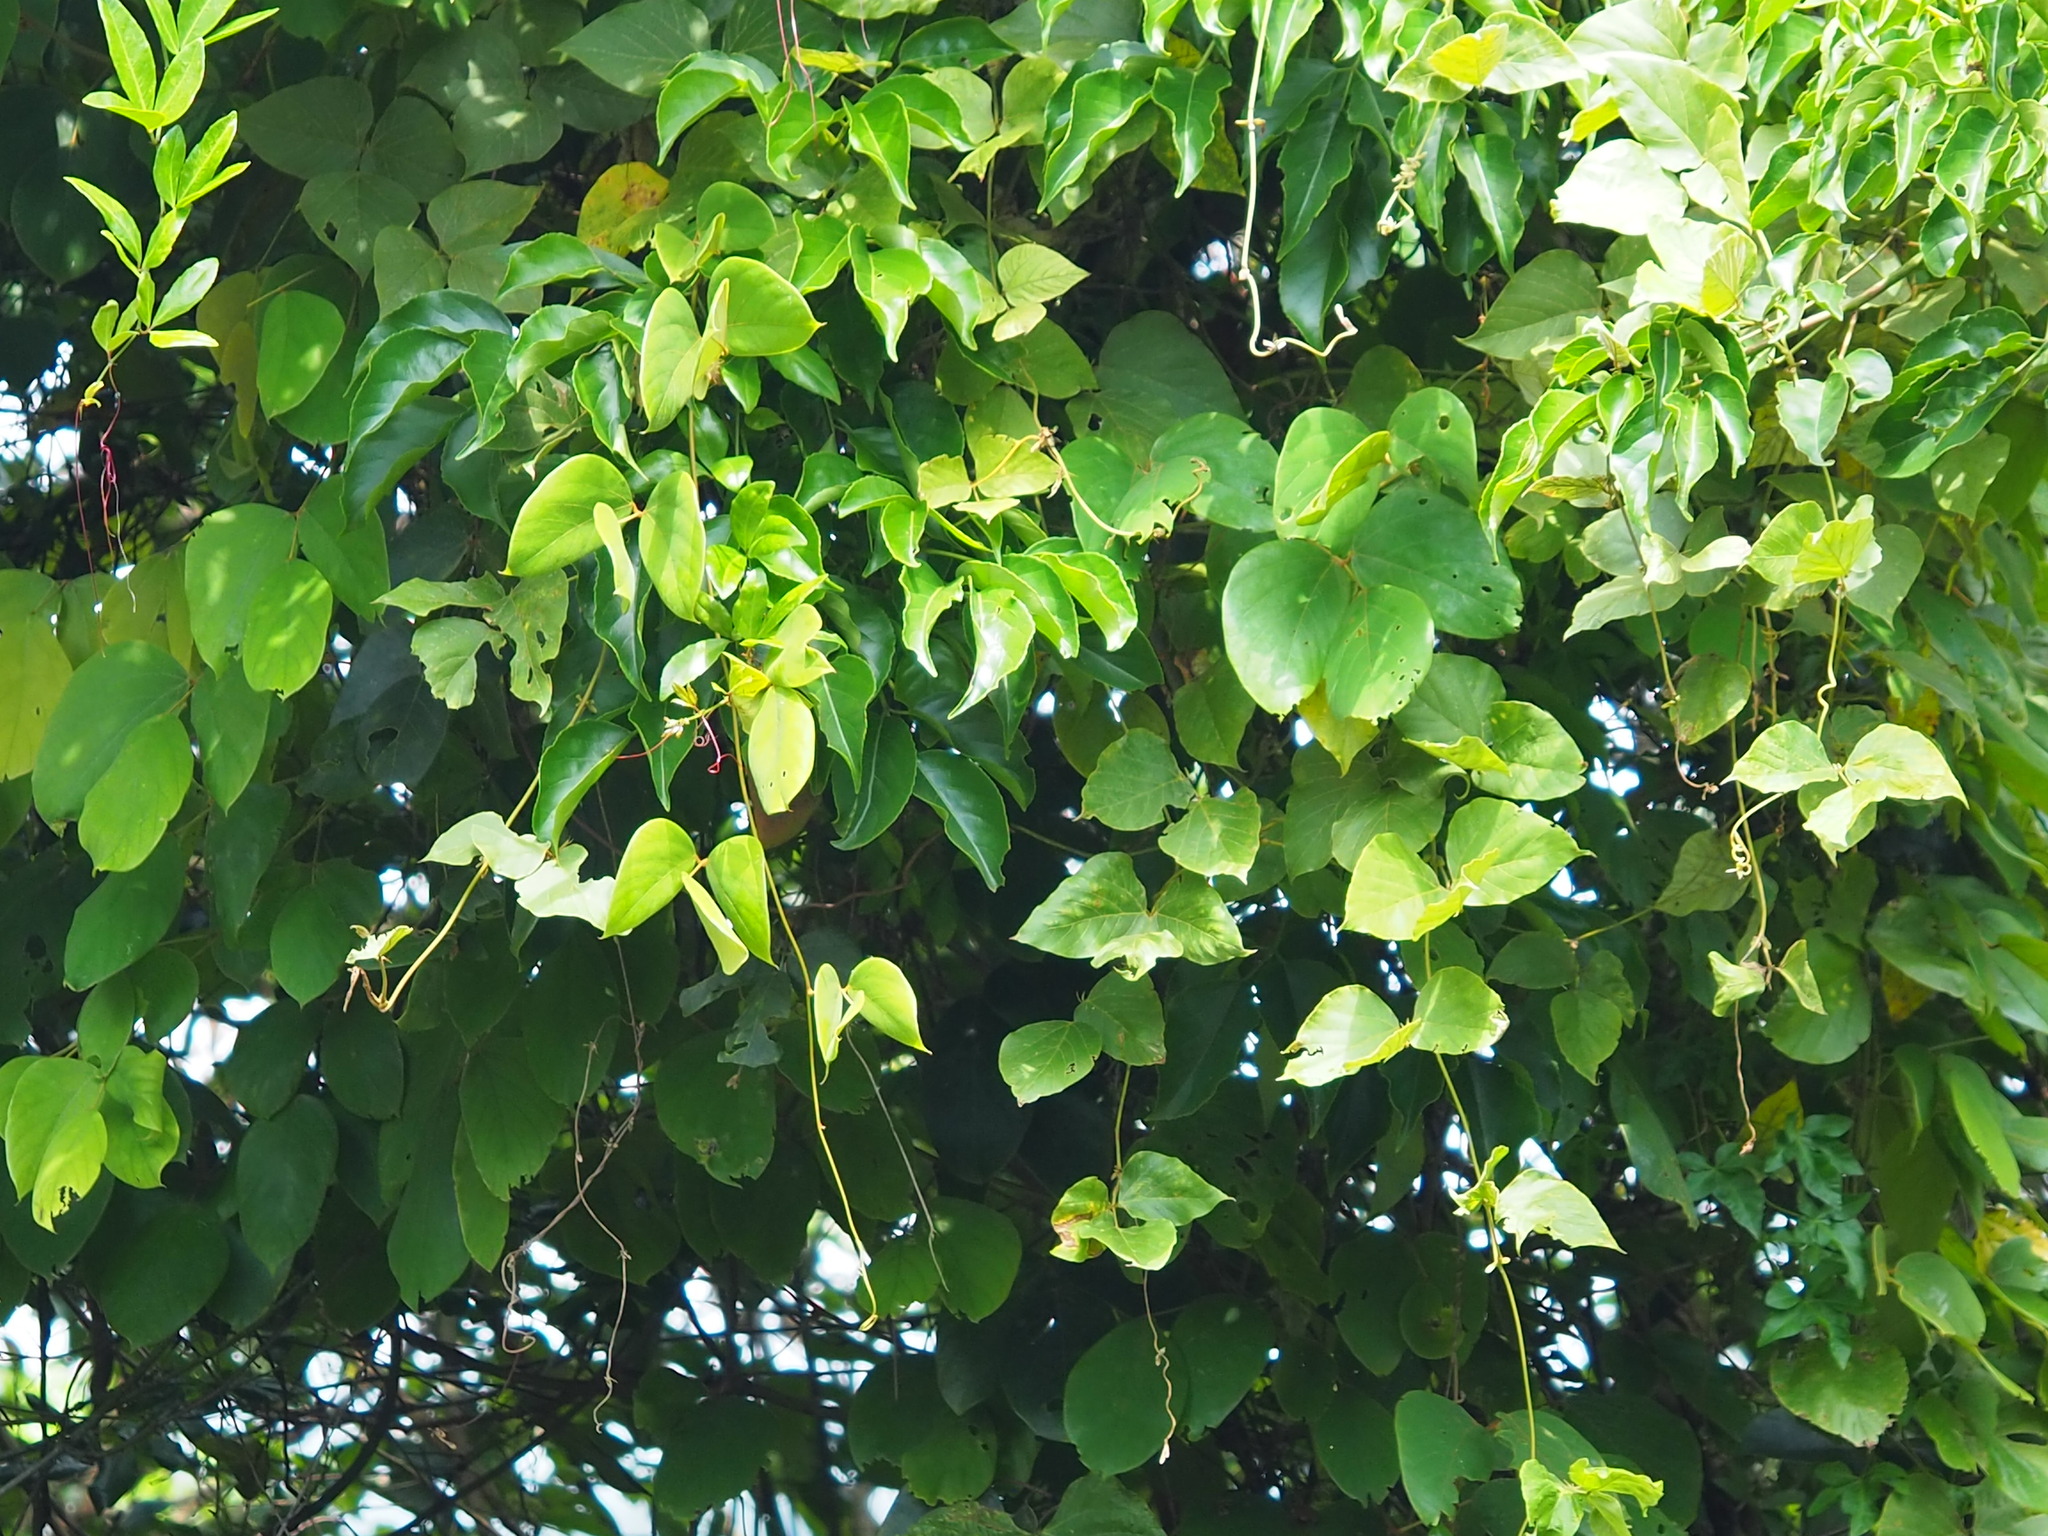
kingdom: Plantae
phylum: Tracheophyta
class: Magnoliopsida
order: Fabales
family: Fabaceae
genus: Pueraria
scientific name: Pueraria montana
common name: Kudzu
